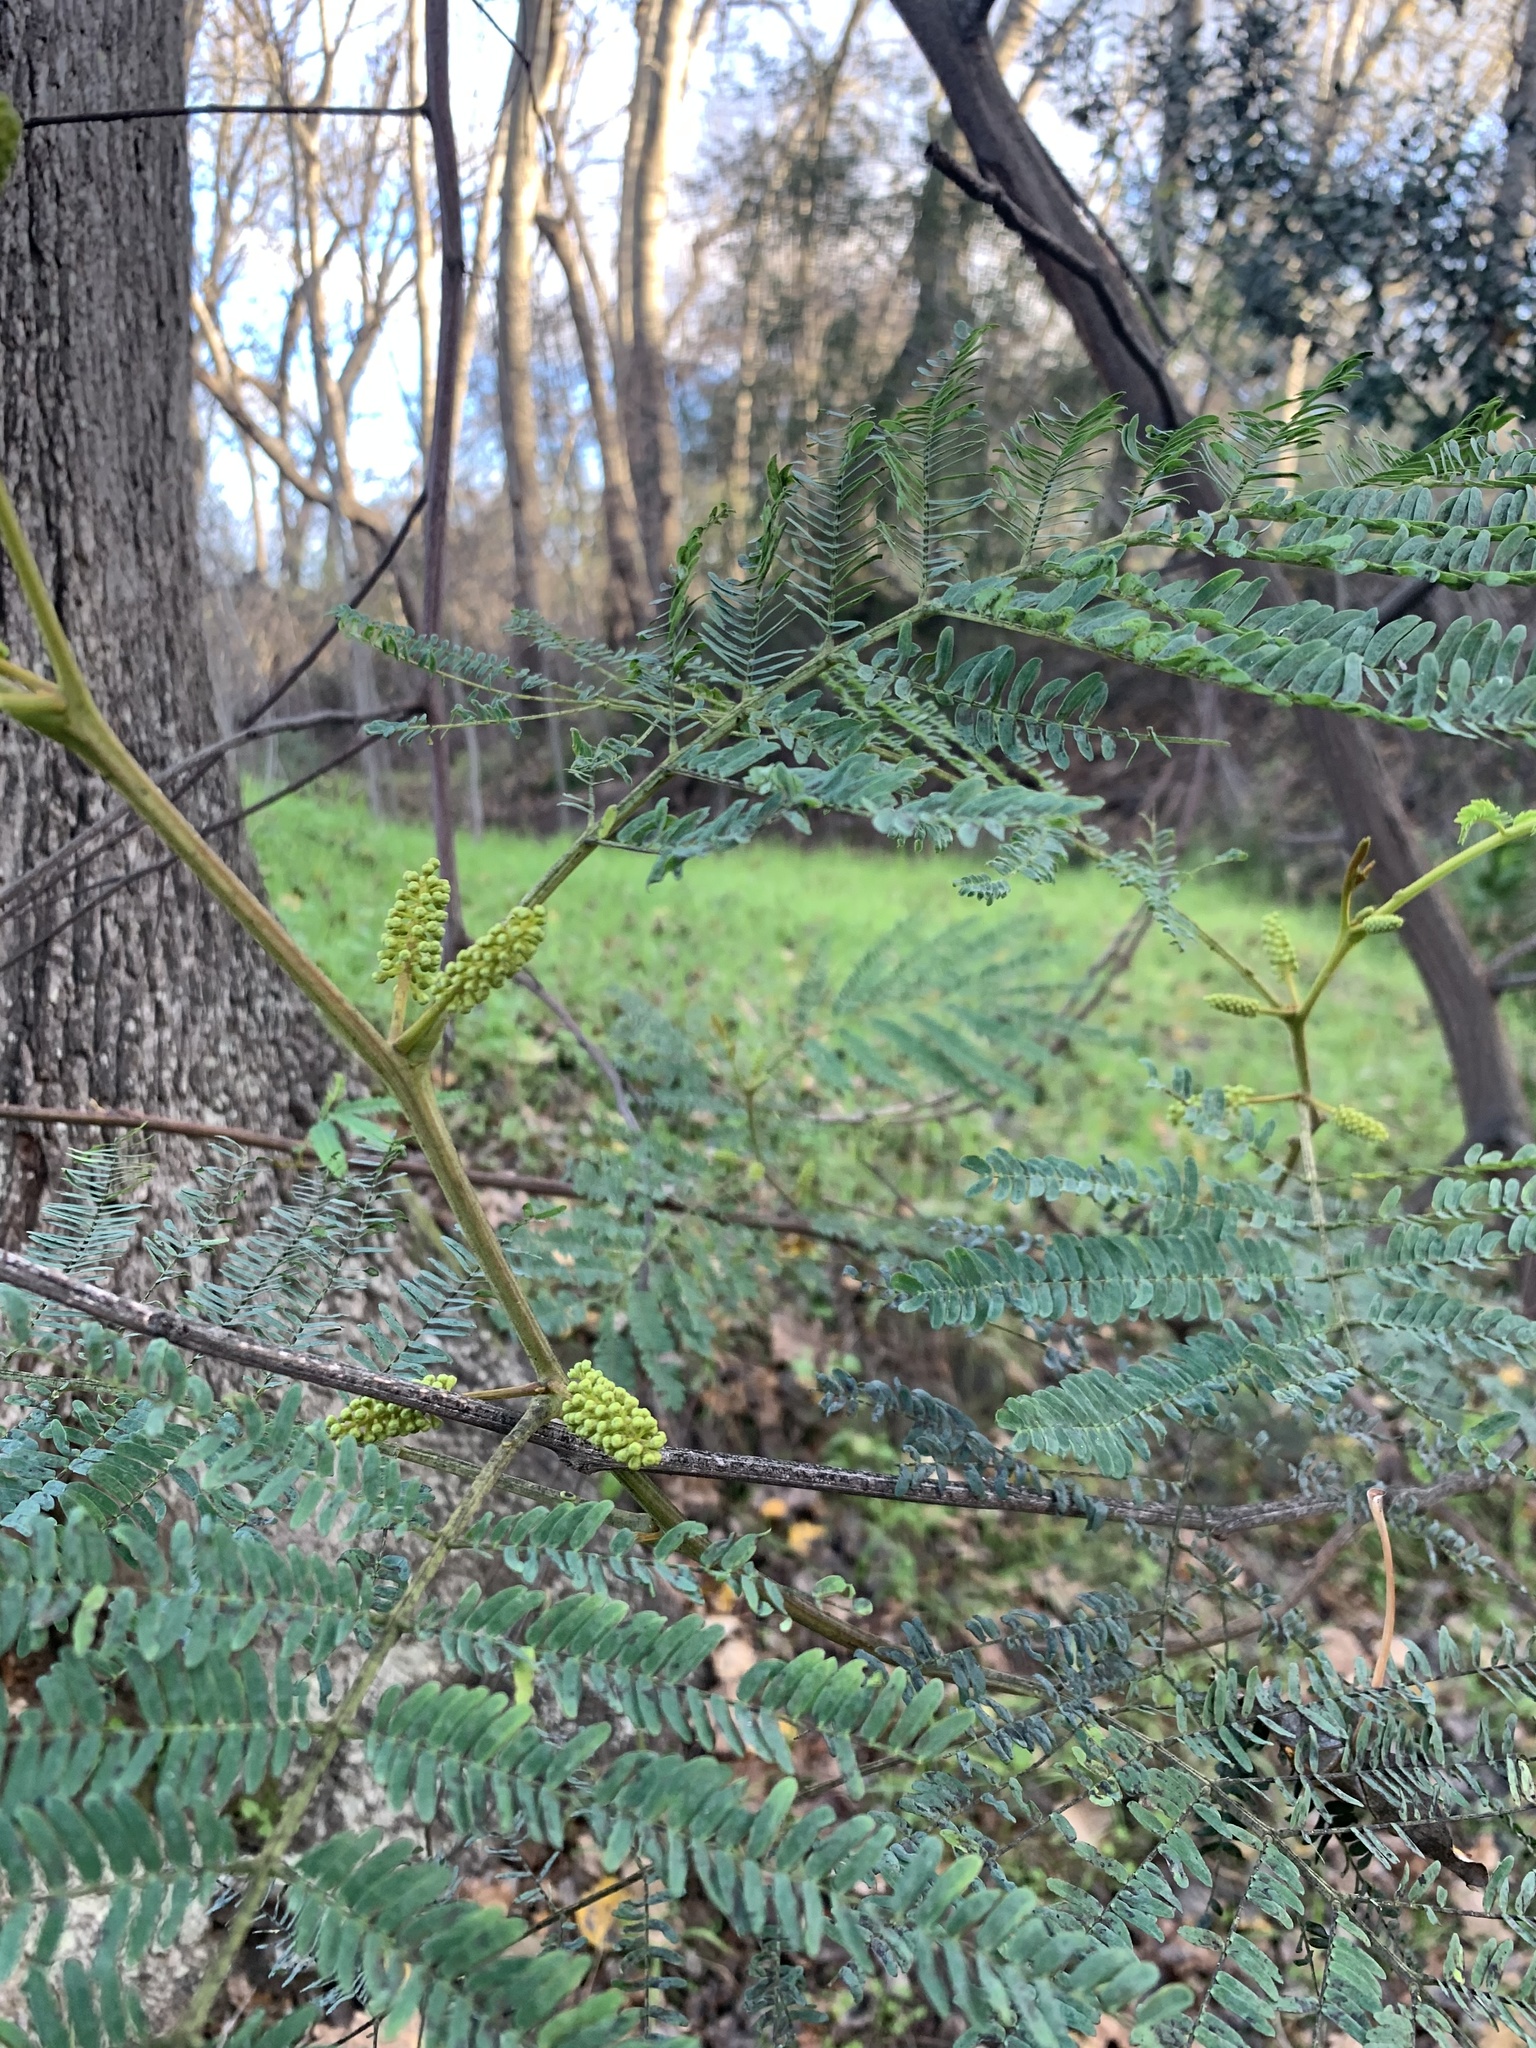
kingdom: Plantae
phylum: Tracheophyta
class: Magnoliopsida
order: Fabales
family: Fabaceae
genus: Paraserianthes
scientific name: Paraserianthes lophantha
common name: Plume albizia
